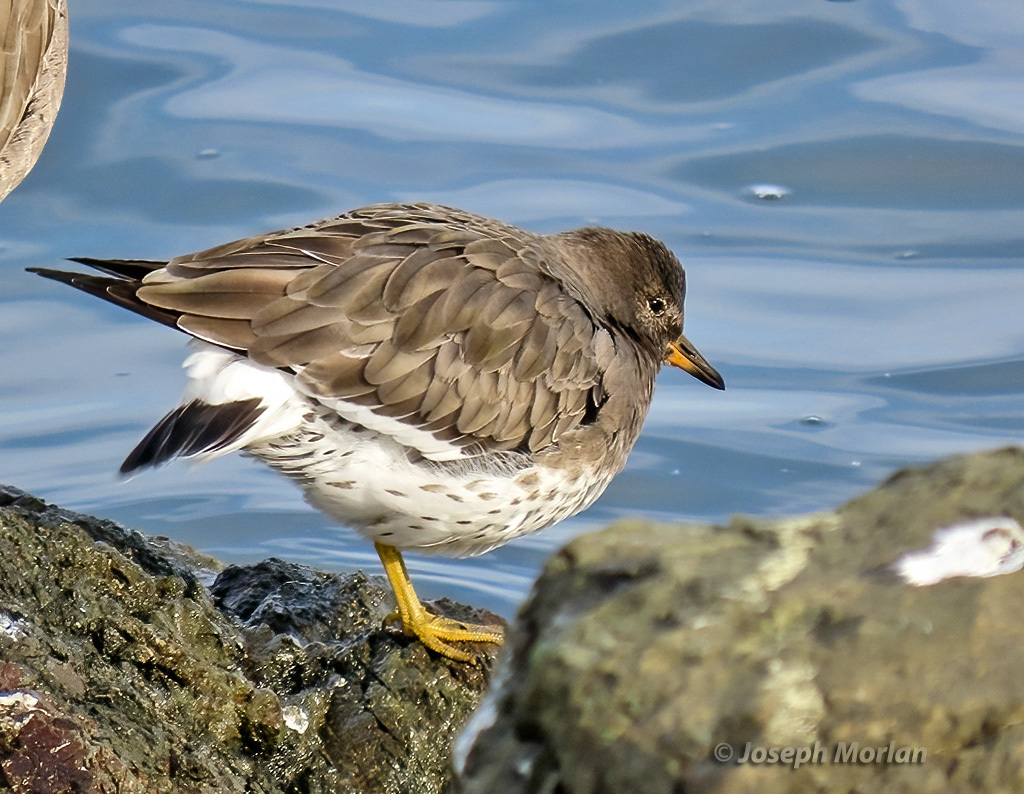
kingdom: Animalia
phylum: Chordata
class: Aves
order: Charadriiformes
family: Scolopacidae
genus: Calidris
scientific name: Calidris virgata
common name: Surfbird
